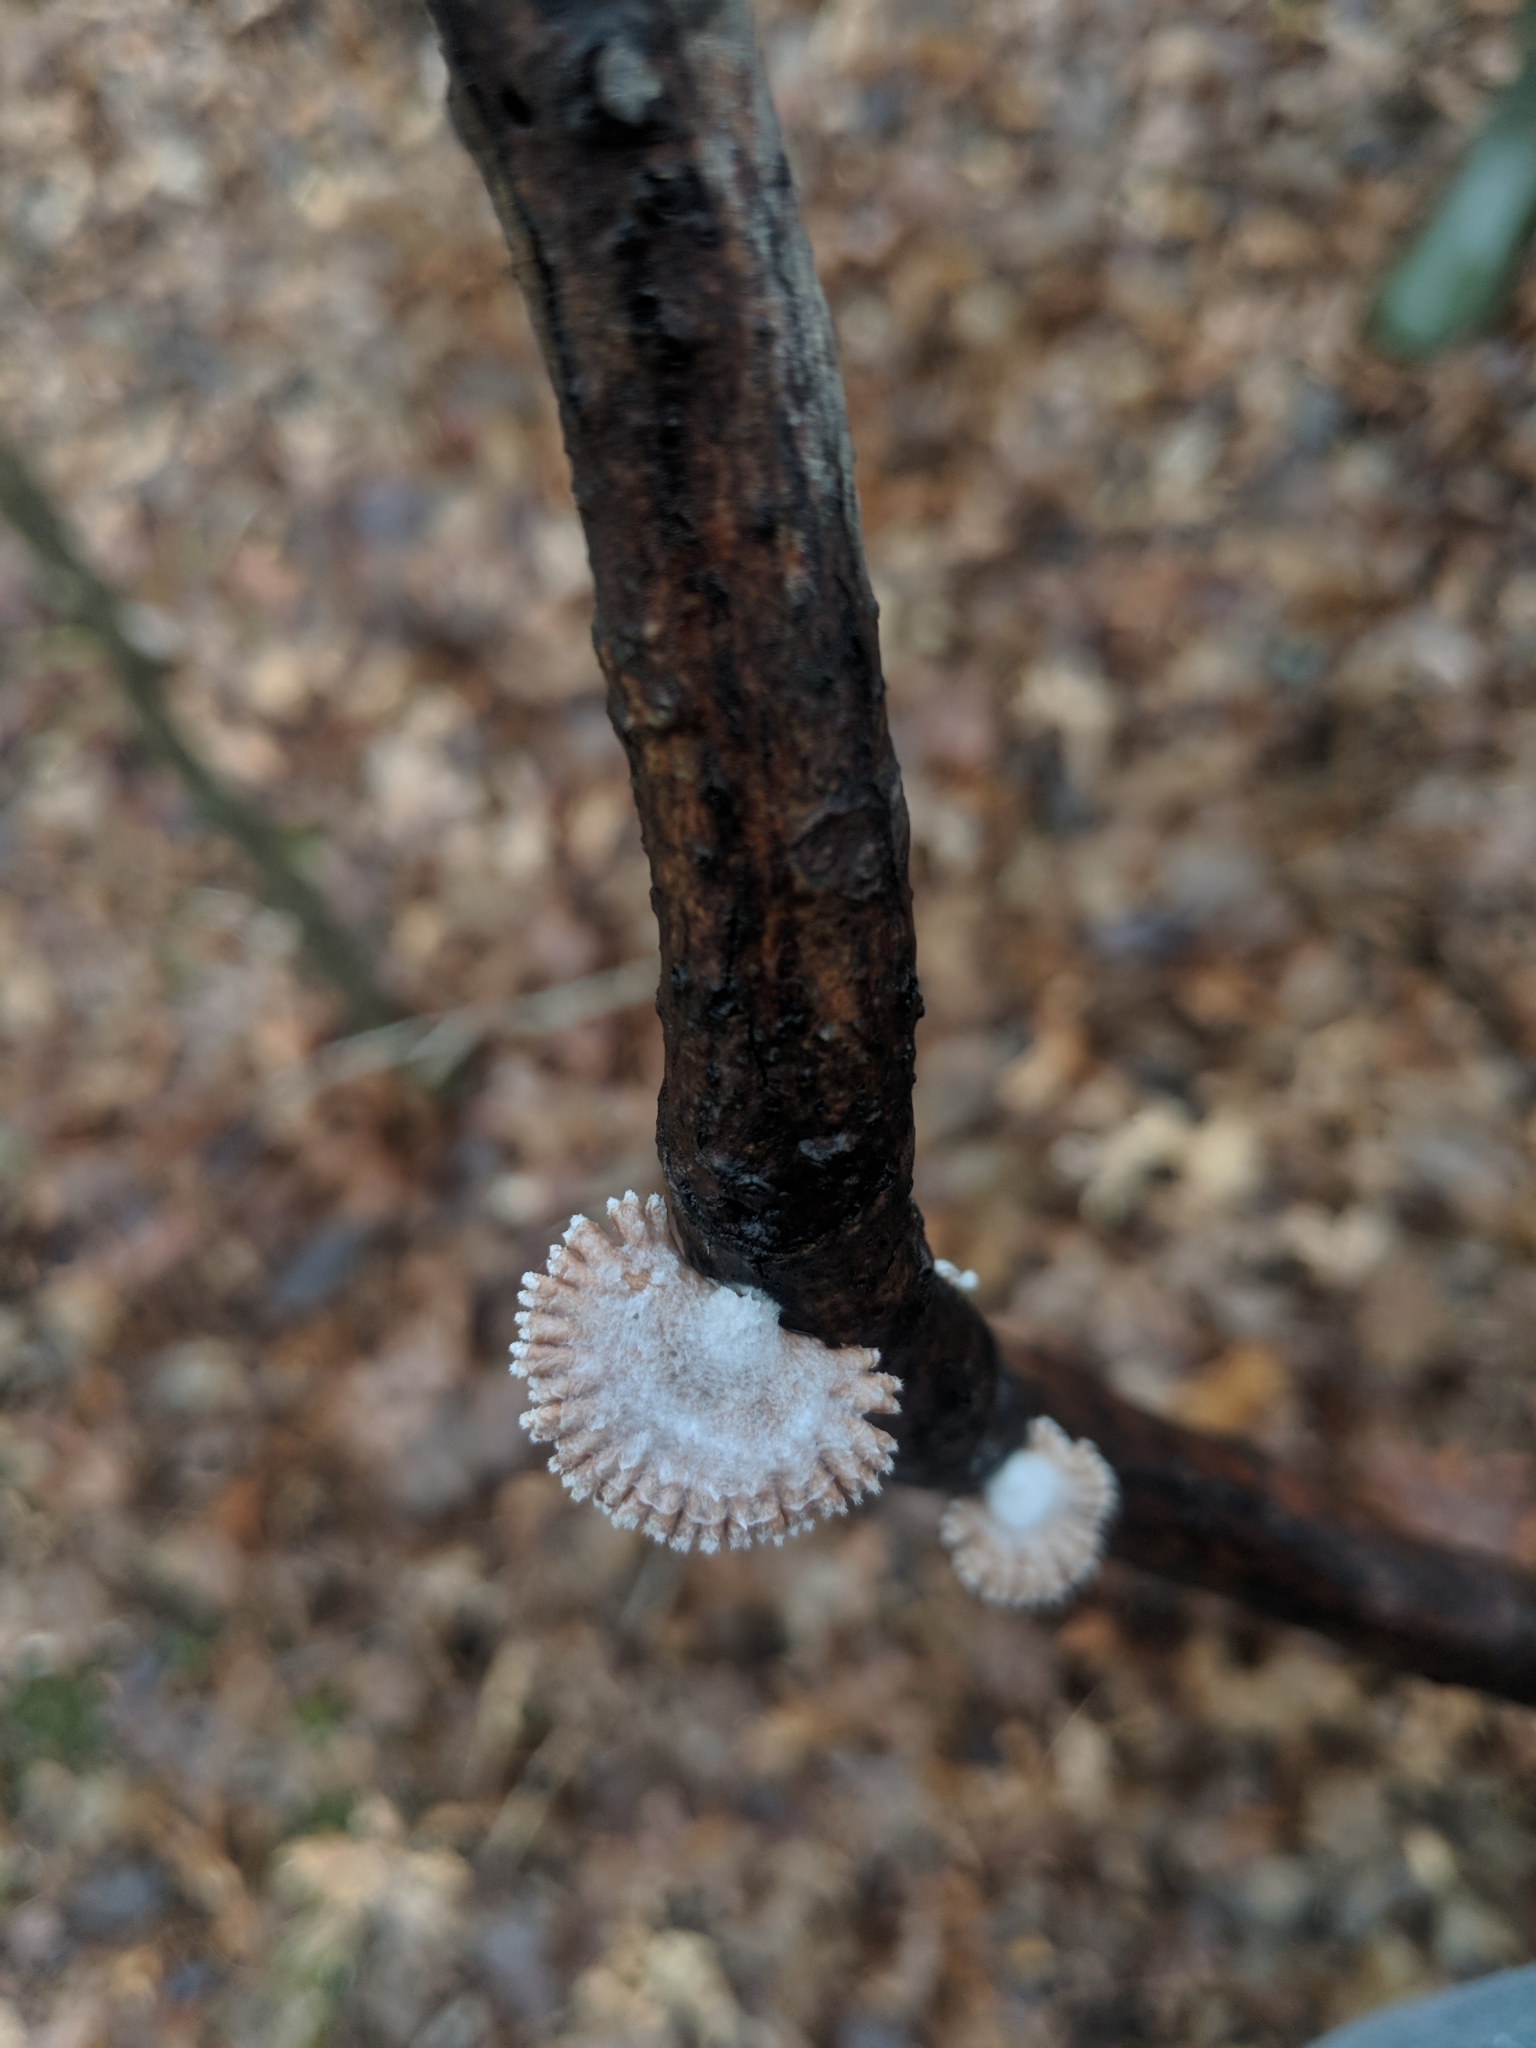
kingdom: Fungi
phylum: Basidiomycota
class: Agaricomycetes
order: Agaricales
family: Schizophyllaceae
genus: Schizophyllum
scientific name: Schizophyllum commune
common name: Common porecrust
